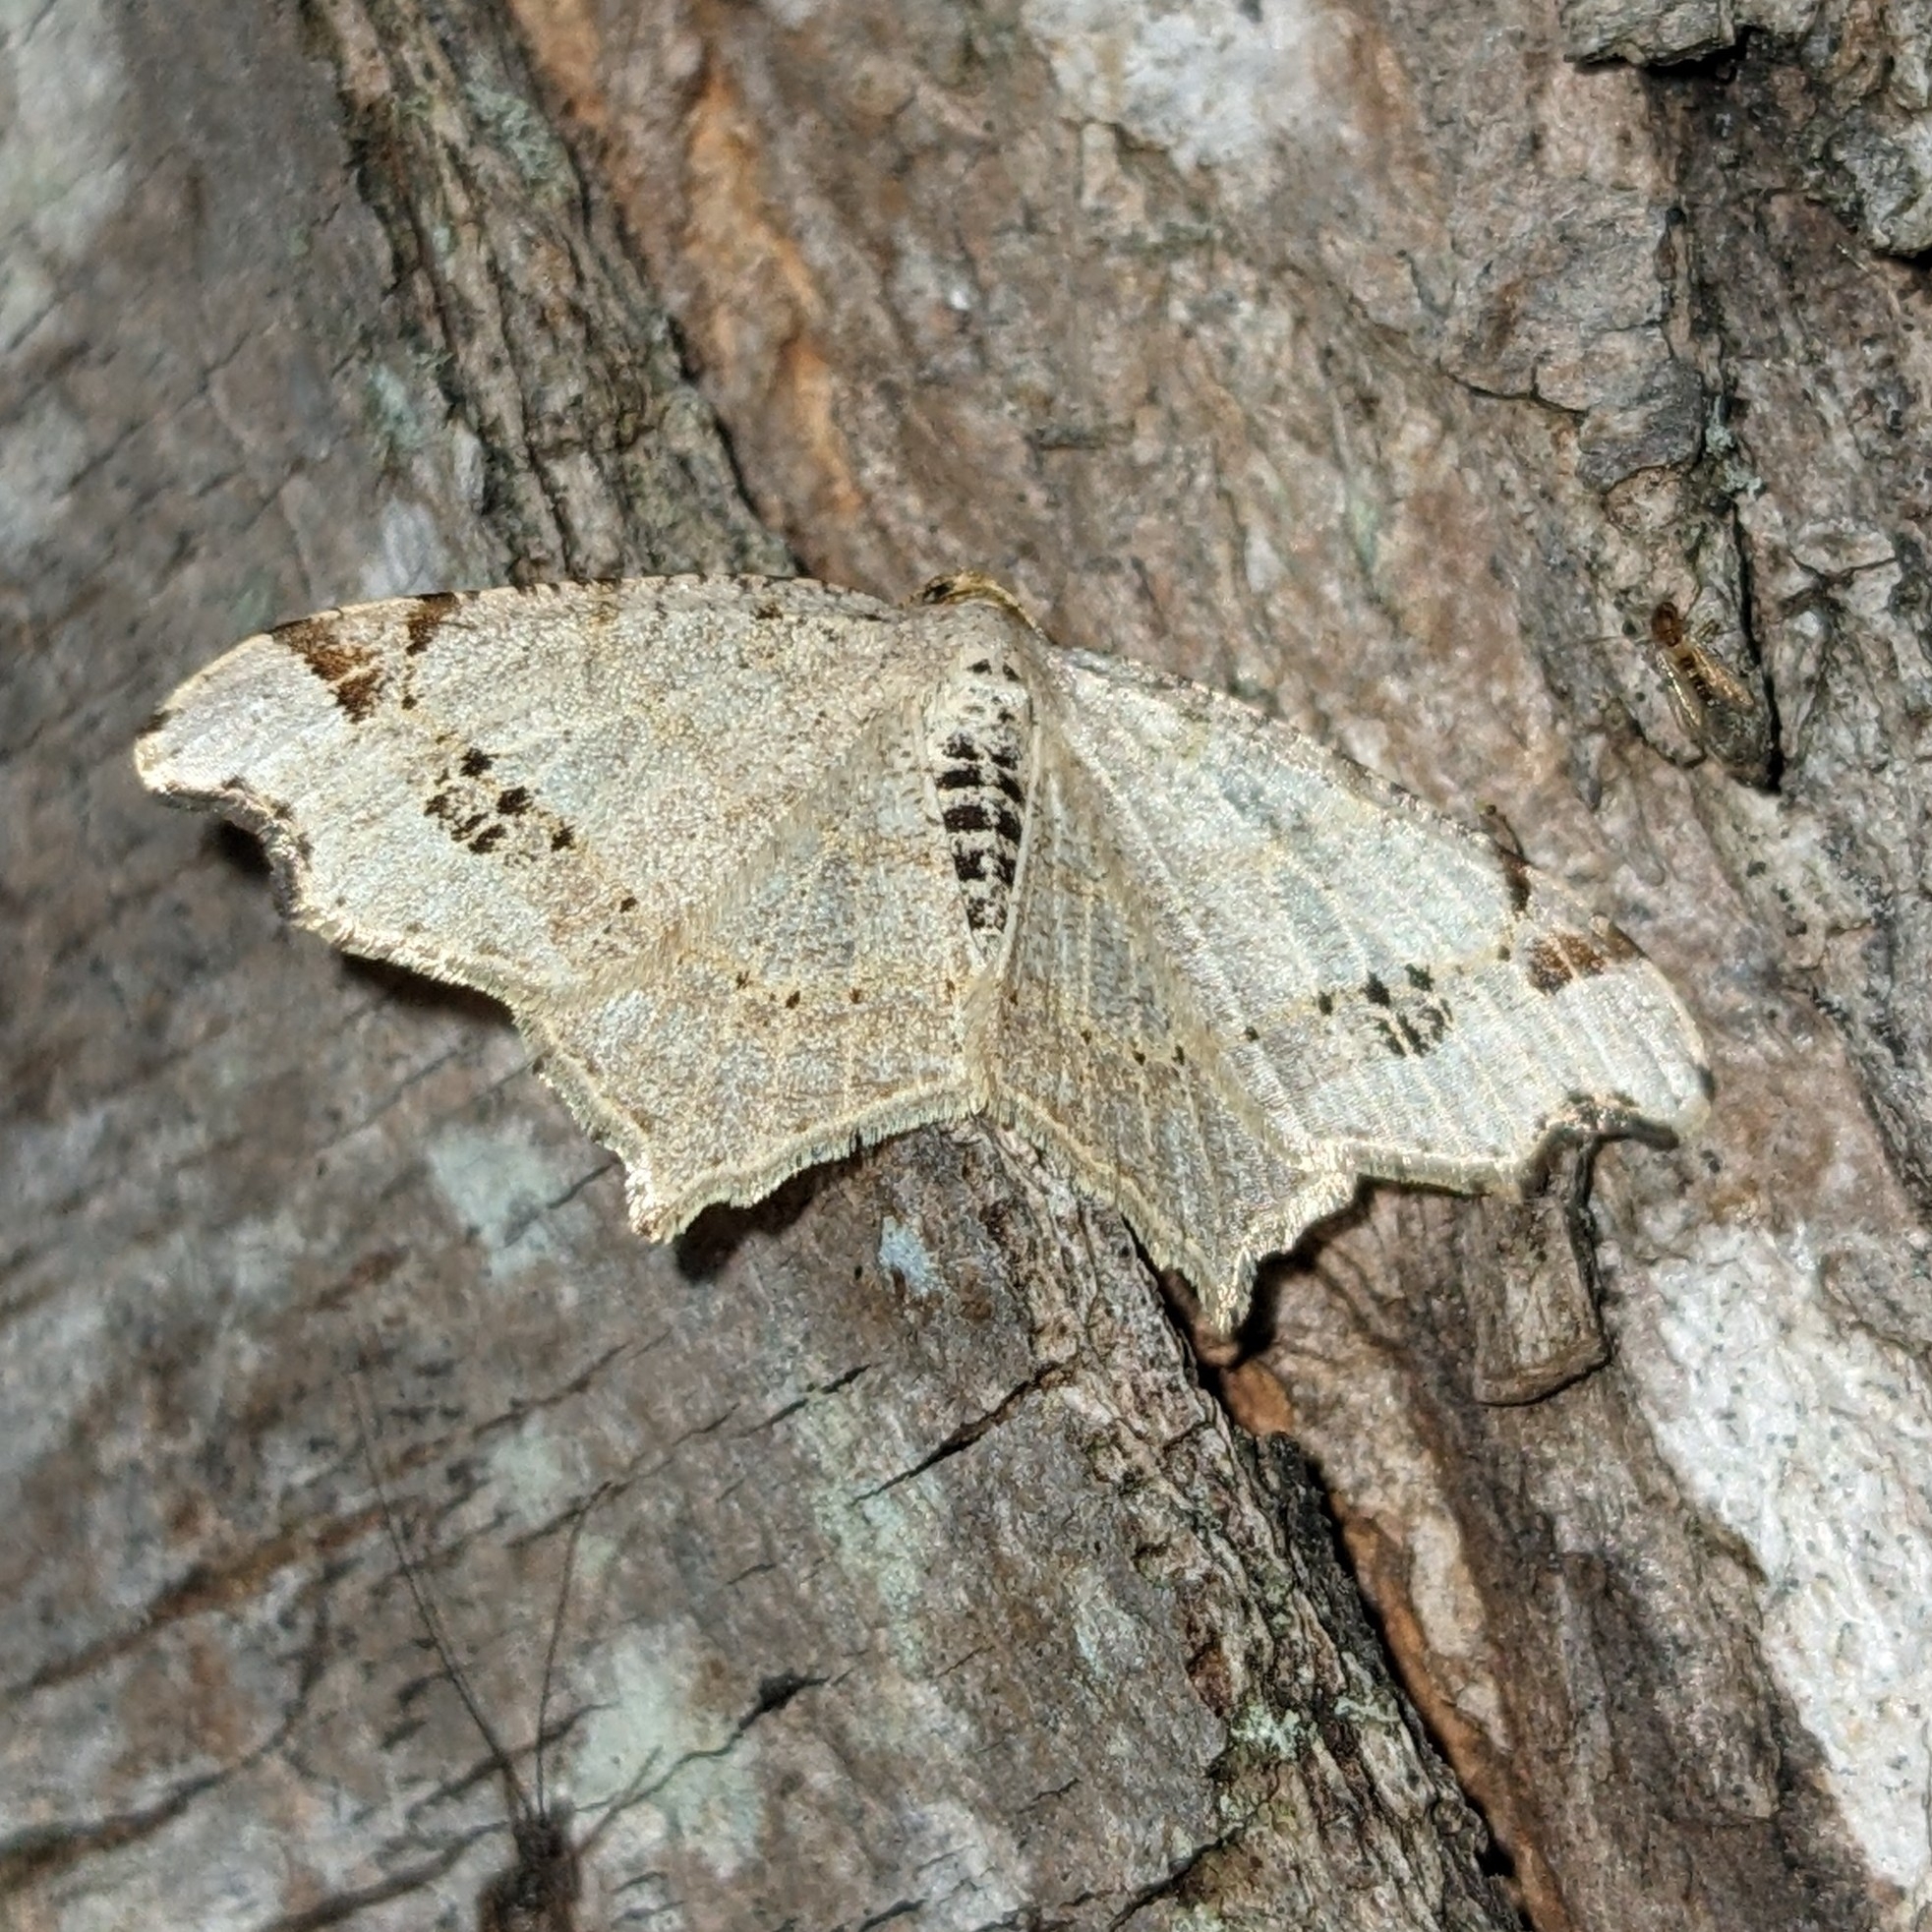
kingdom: Animalia
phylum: Arthropoda
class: Insecta
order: Lepidoptera
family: Geometridae
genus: Macaria
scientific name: Macaria ulsterata
